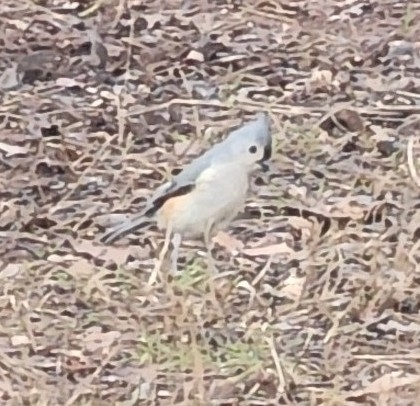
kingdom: Animalia
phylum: Chordata
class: Aves
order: Passeriformes
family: Paridae
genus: Baeolophus
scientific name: Baeolophus bicolor
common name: Tufted titmouse
